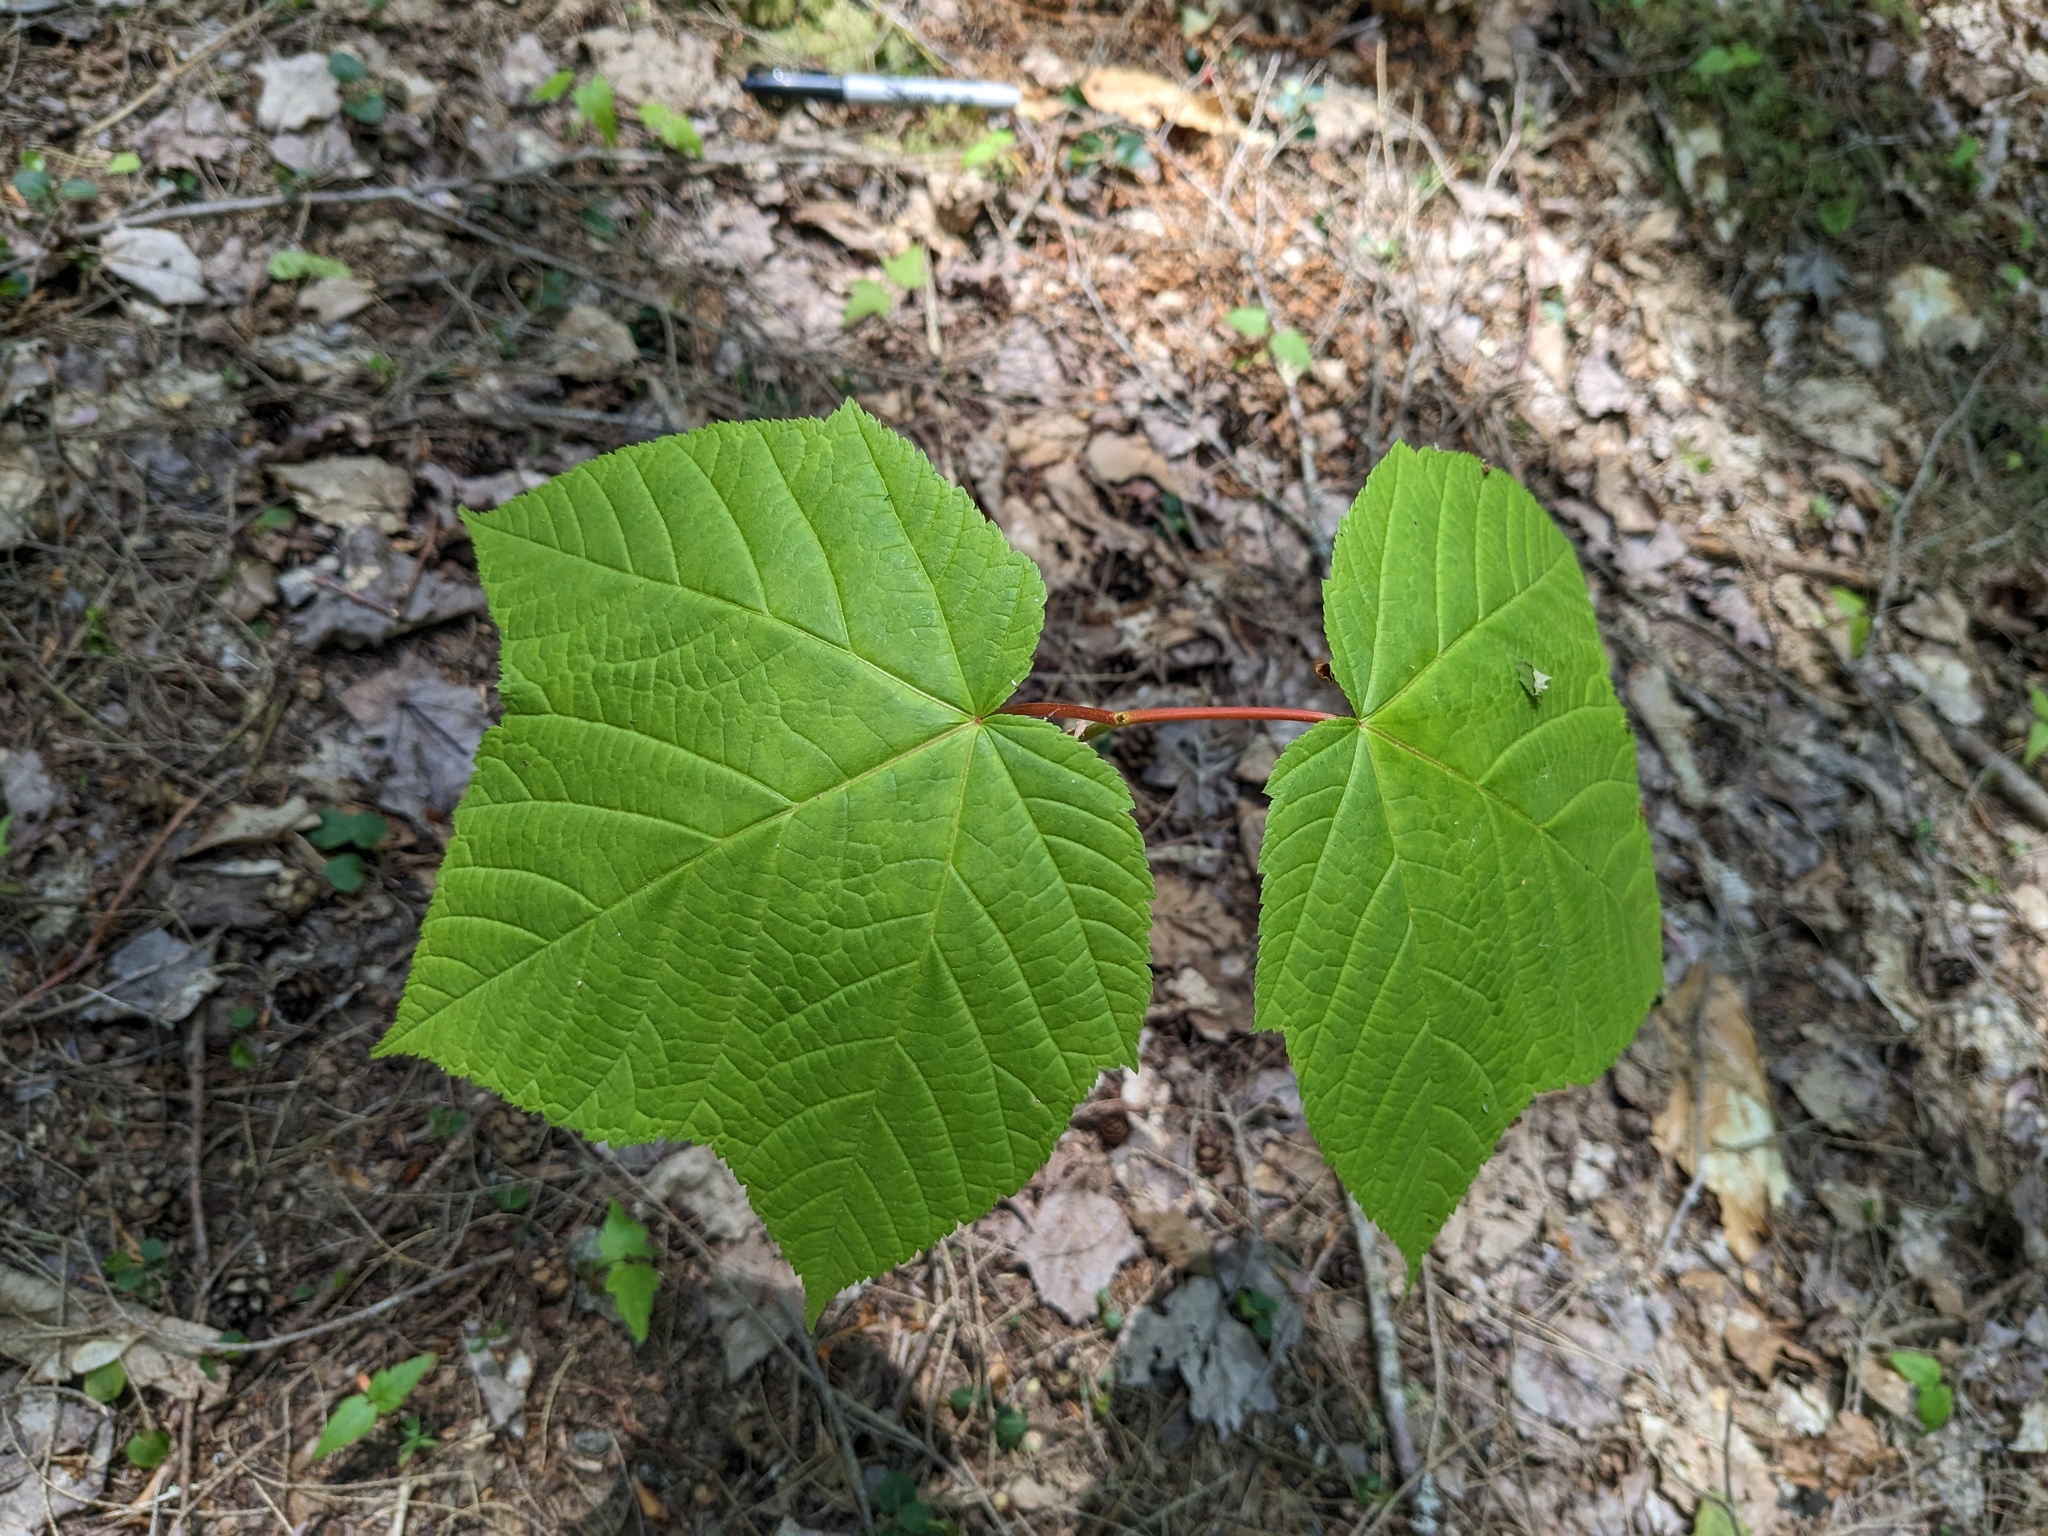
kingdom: Plantae
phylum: Tracheophyta
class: Magnoliopsida
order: Sapindales
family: Sapindaceae
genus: Acer
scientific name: Acer pensylvanicum
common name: Moosewood
